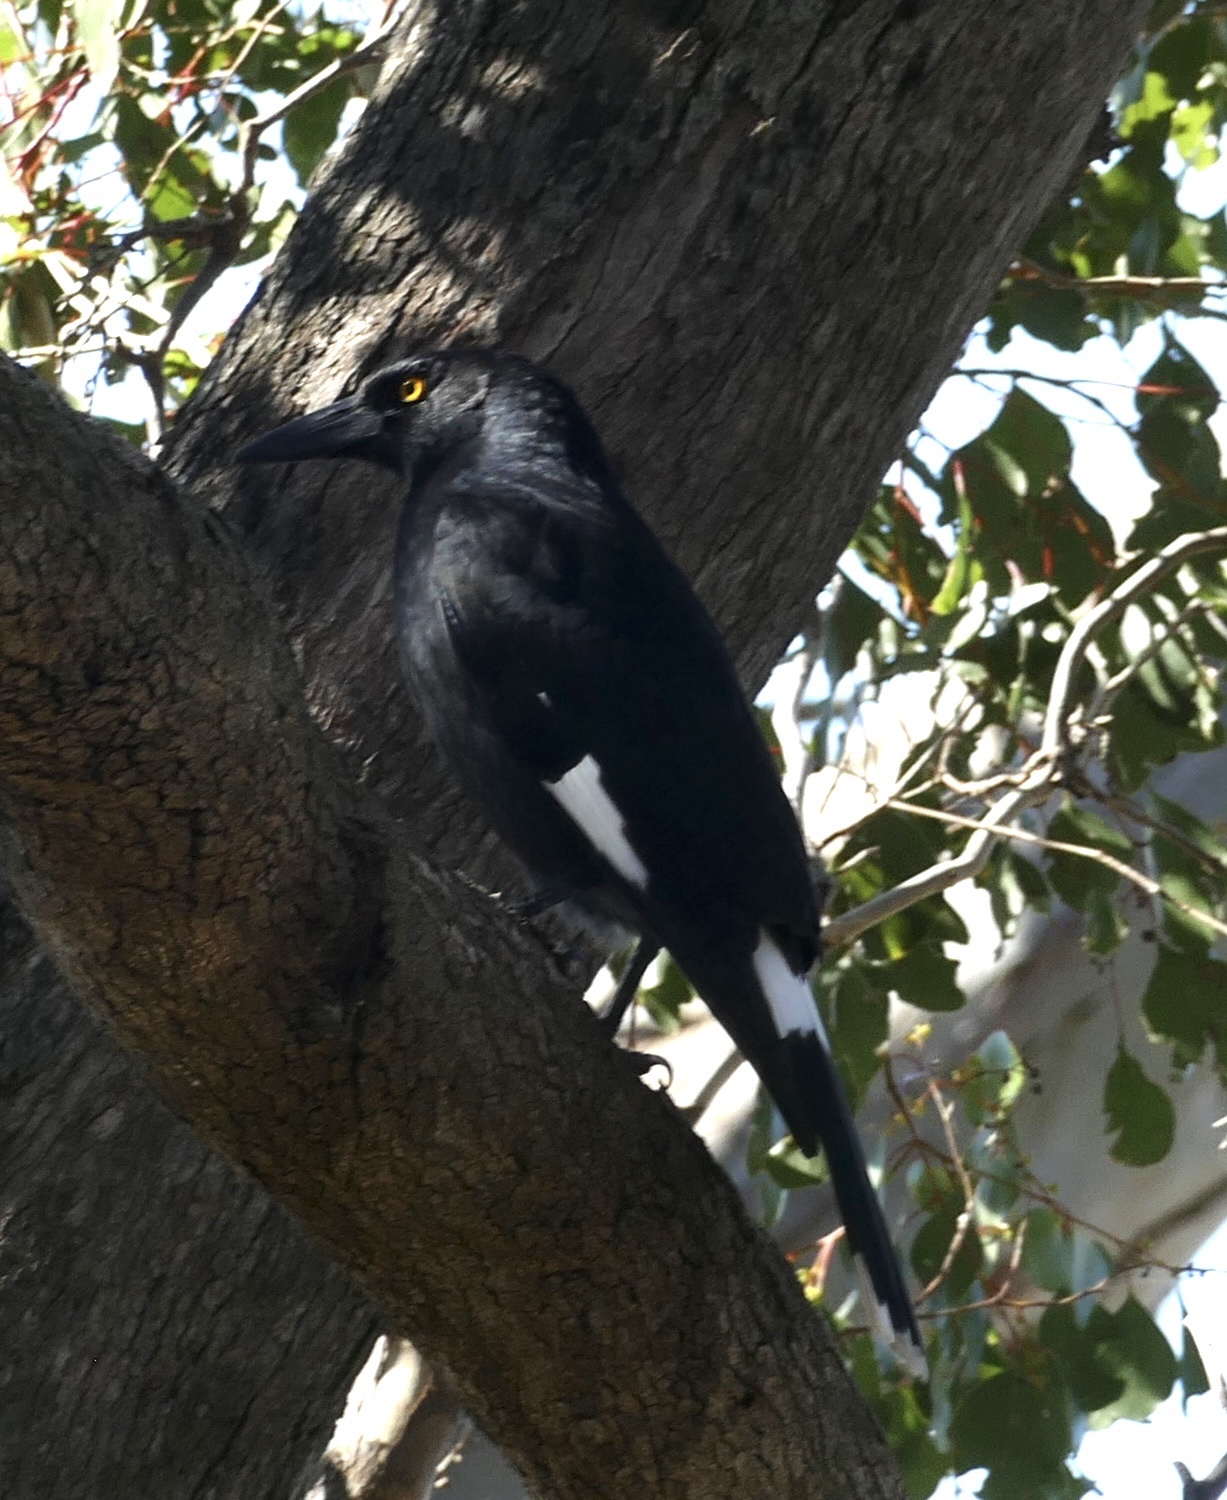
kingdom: Animalia
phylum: Chordata
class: Aves
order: Passeriformes
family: Cracticidae
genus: Strepera
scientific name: Strepera graculina
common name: Pied currawong
